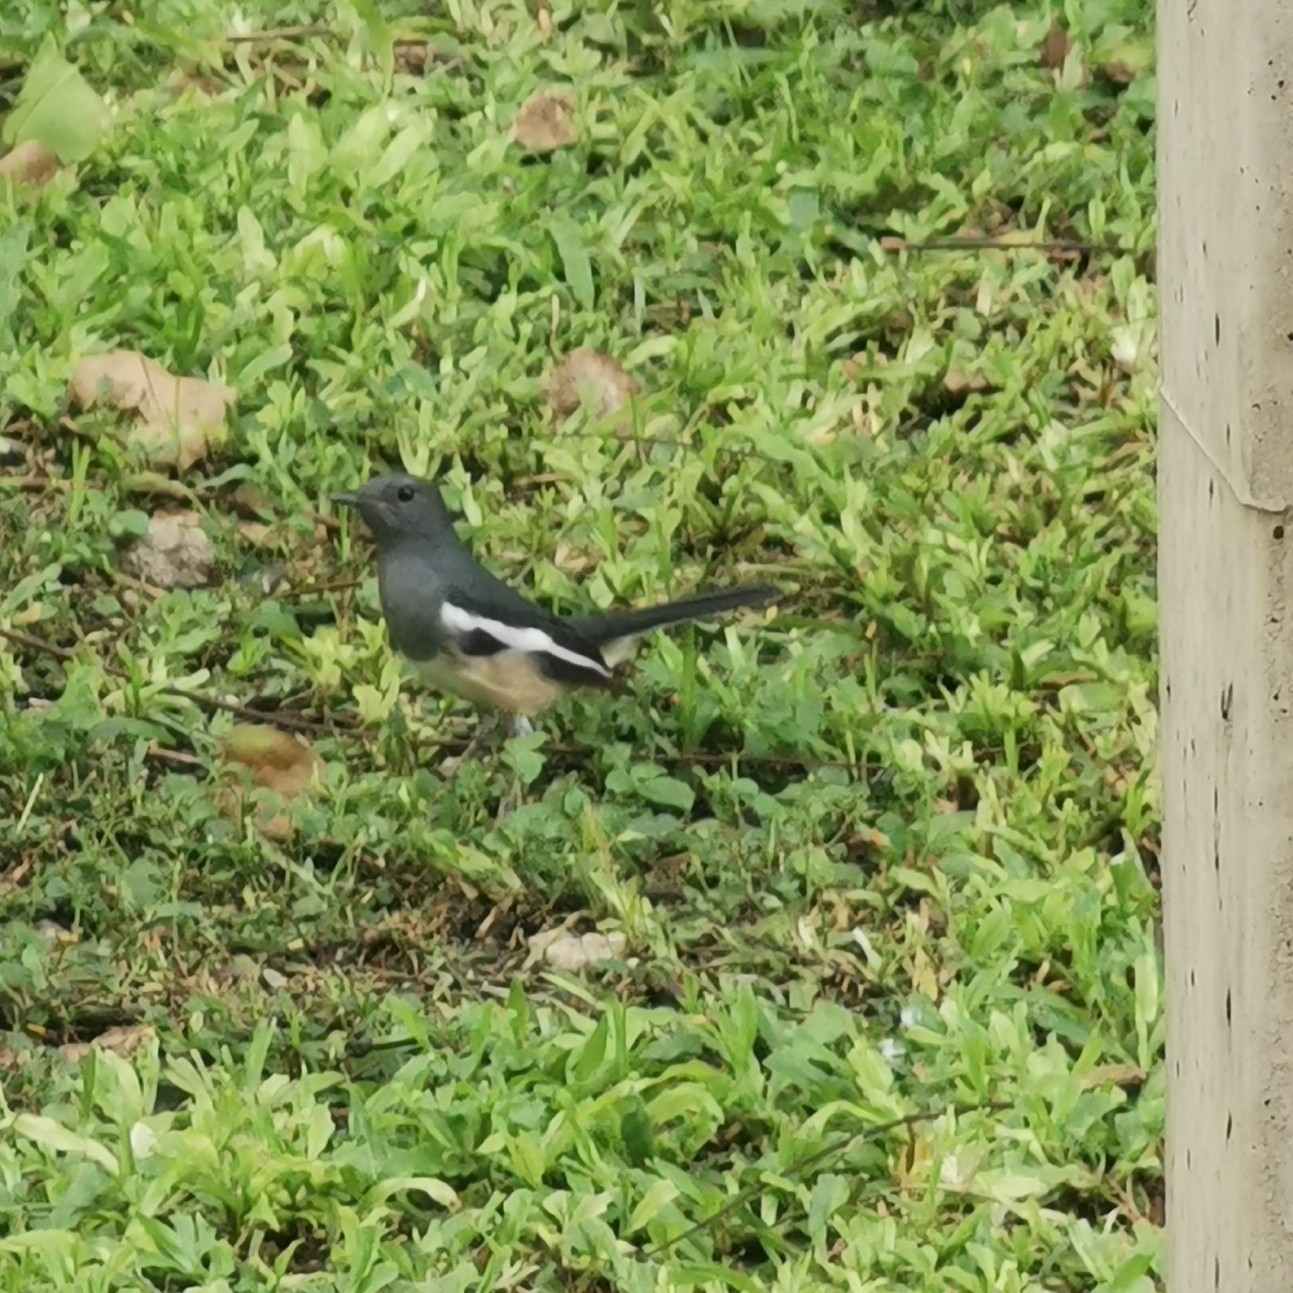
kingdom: Animalia
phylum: Chordata
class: Aves
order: Passeriformes
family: Muscicapidae
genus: Copsychus
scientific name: Copsychus saularis
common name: Oriental magpie-robin
